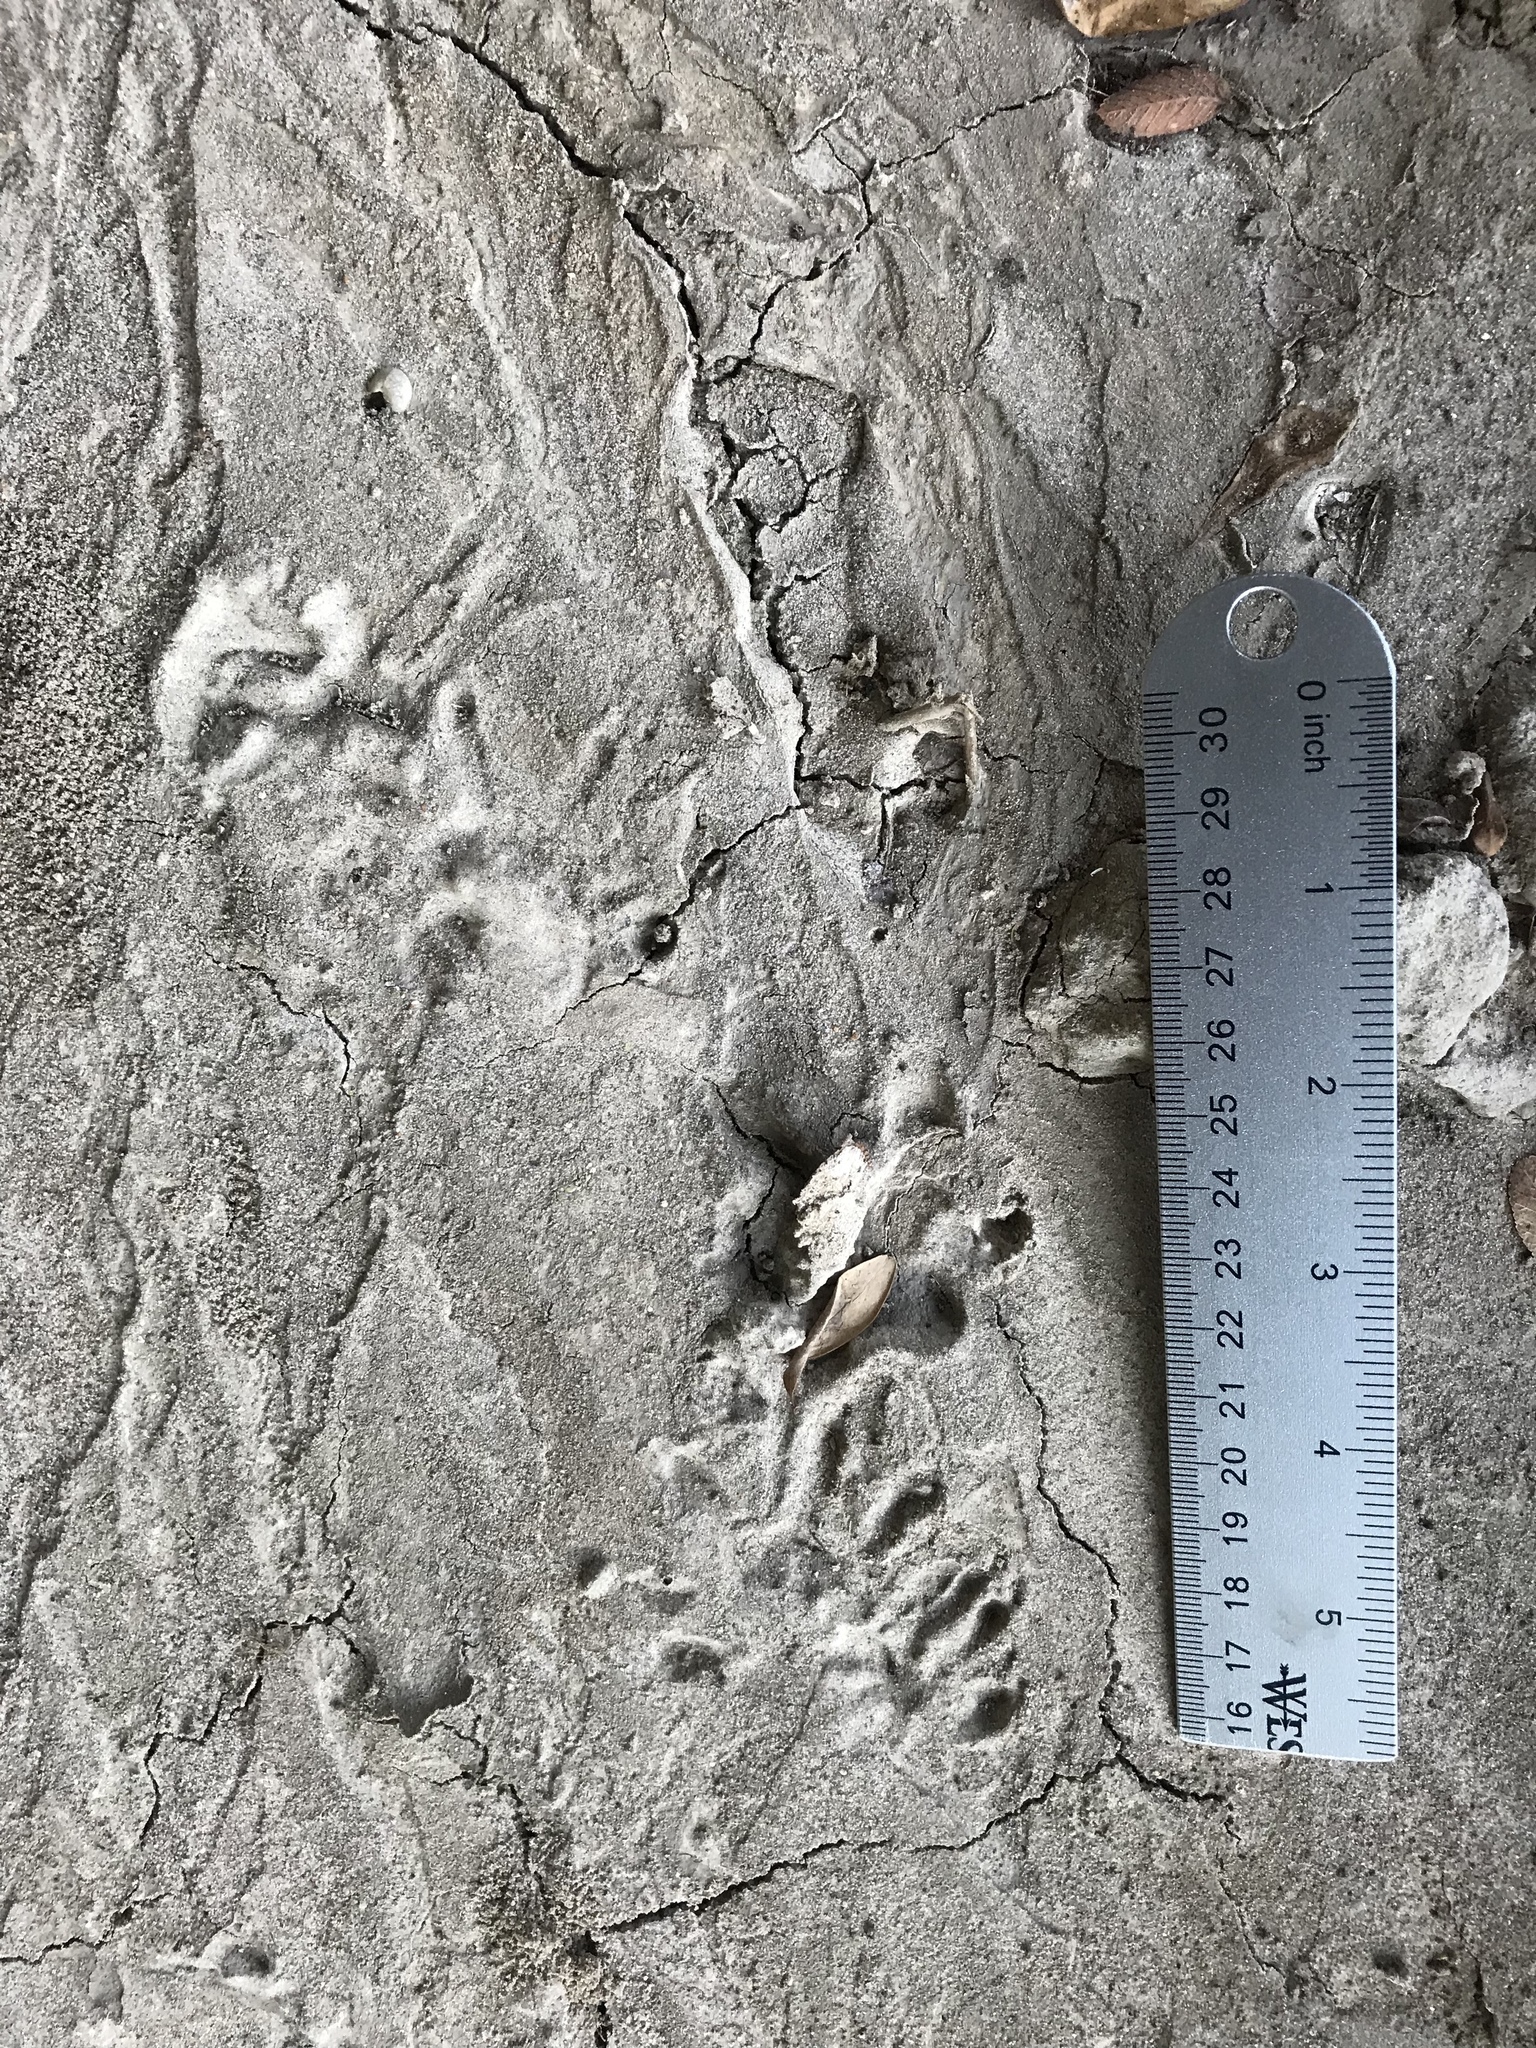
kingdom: Animalia
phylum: Chordata
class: Mammalia
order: Didelphimorphia
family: Didelphidae
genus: Didelphis
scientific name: Didelphis virginiana
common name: Virginia opossum
